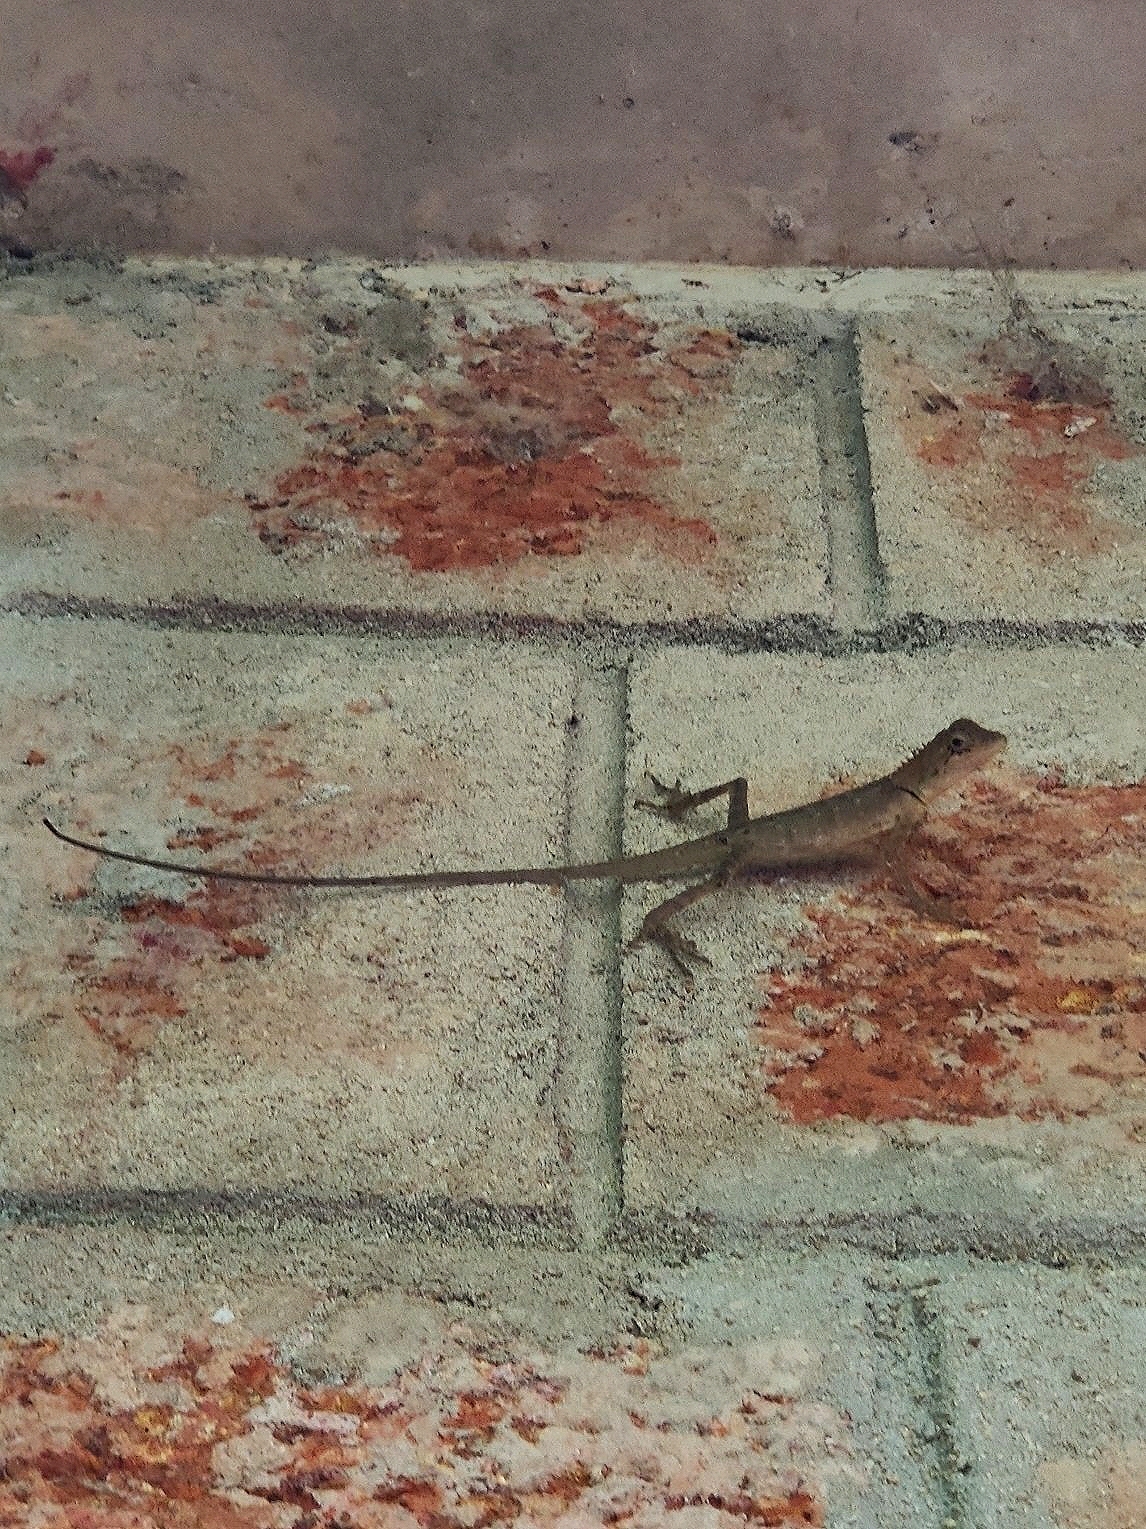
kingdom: Animalia
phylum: Chordata
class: Squamata
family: Agamidae
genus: Monilesaurus
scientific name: Monilesaurus rouxii
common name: Roux's forest lizard
